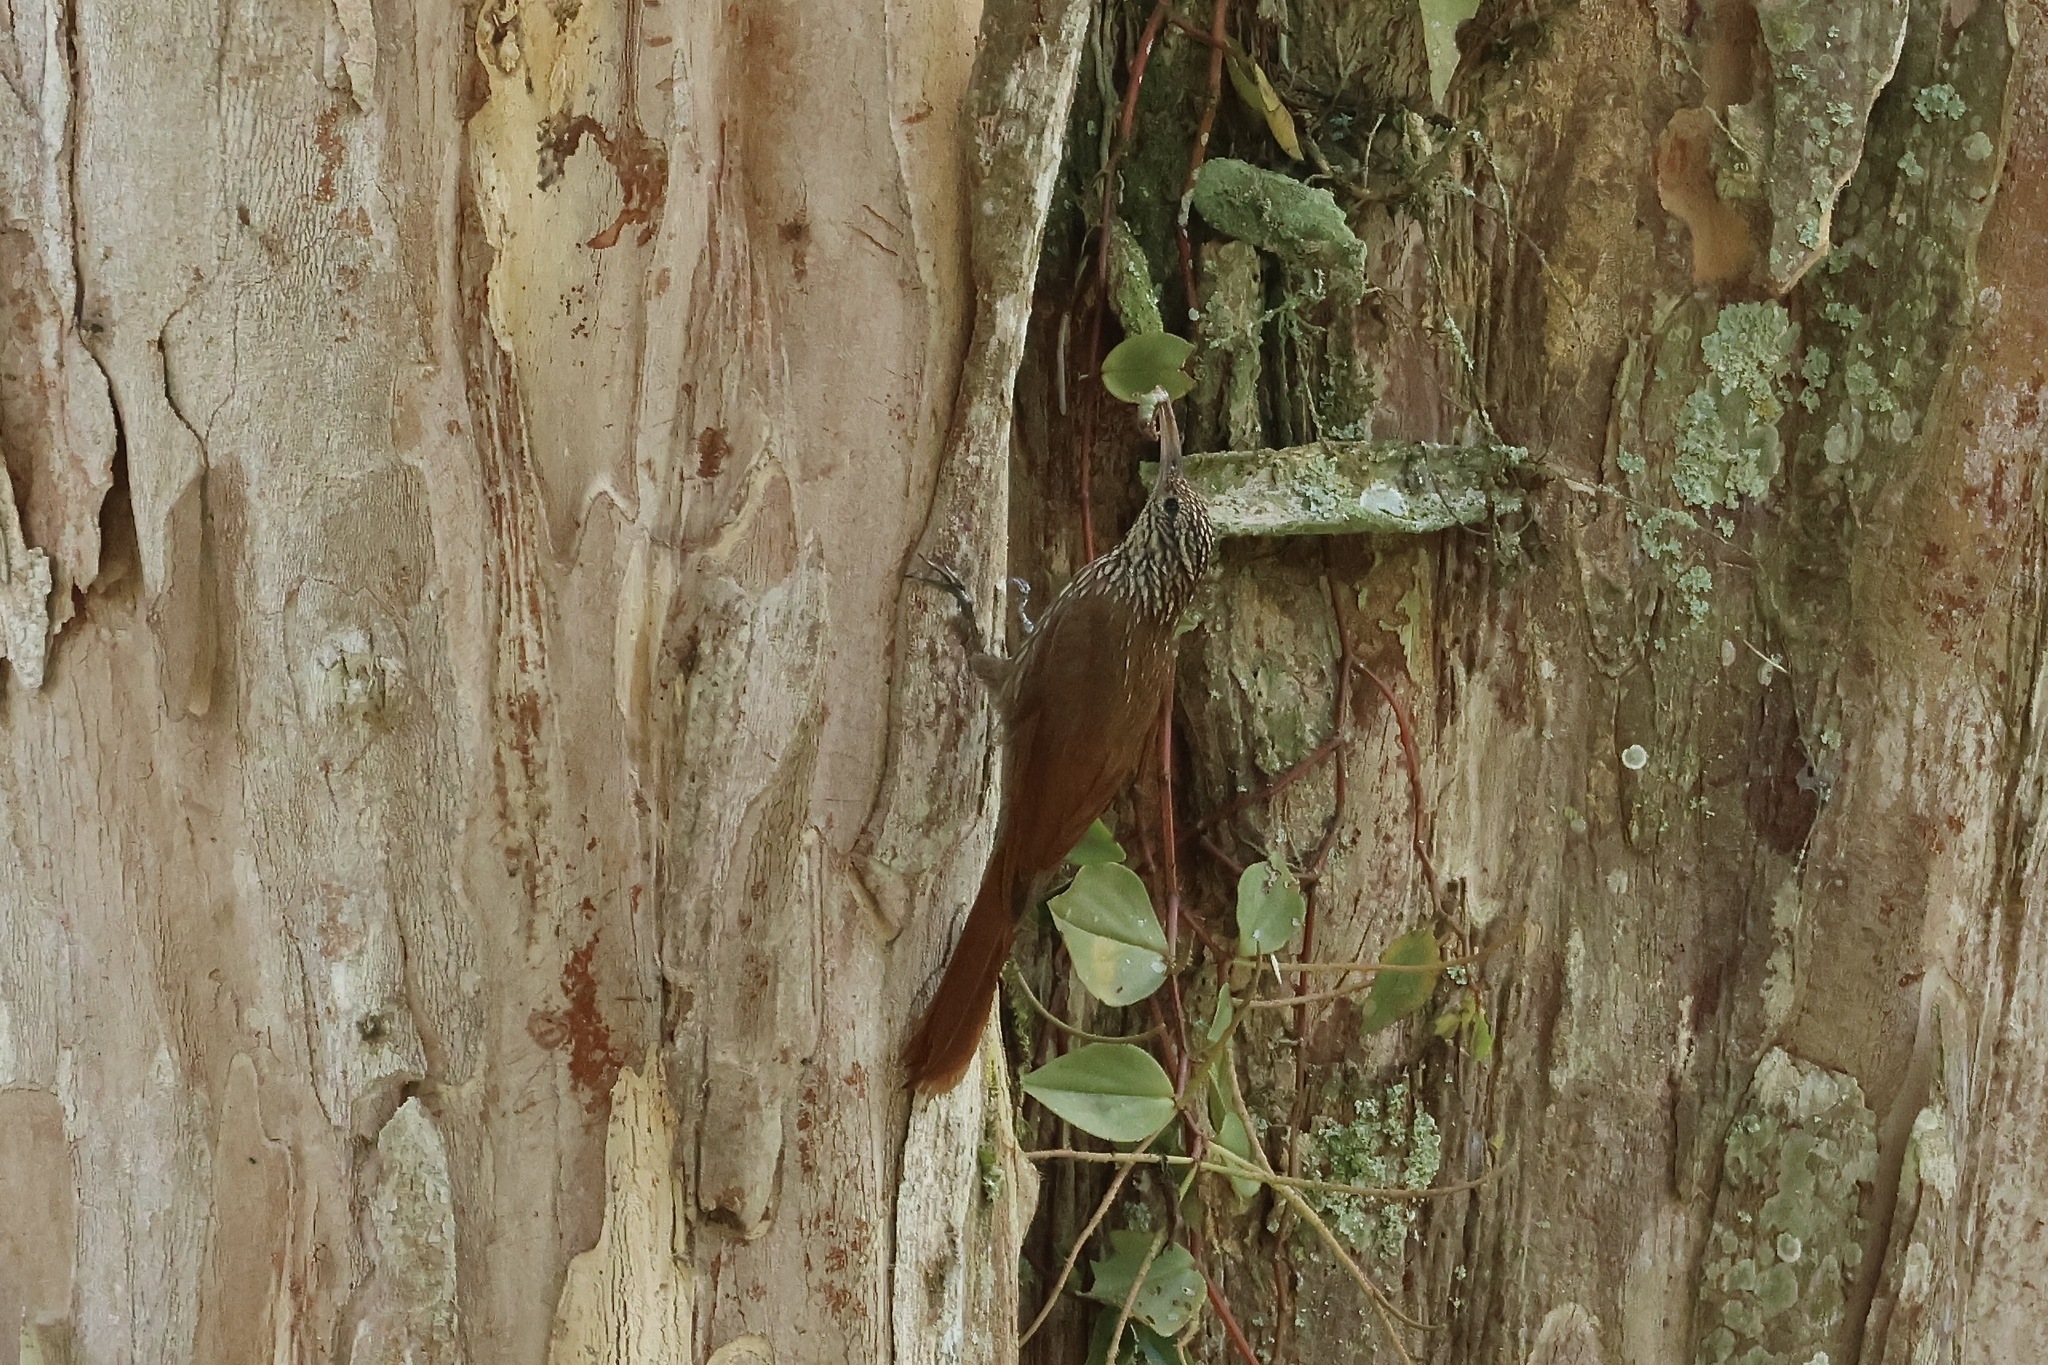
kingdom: Animalia
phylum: Chordata
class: Aves
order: Passeriformes
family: Furnariidae
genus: Lepidocolaptes
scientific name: Lepidocolaptes souleyetii
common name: Streak-headed woodcreeper
